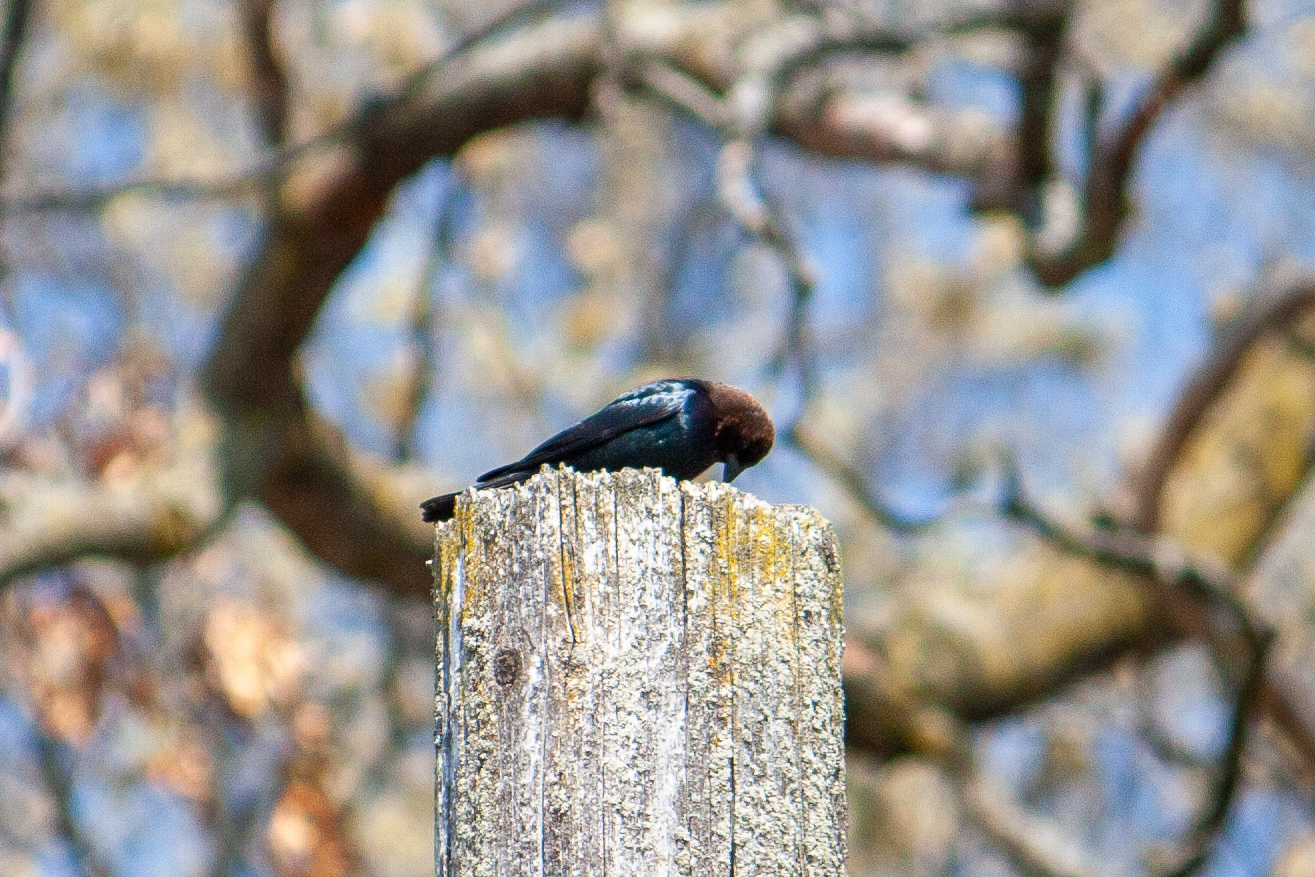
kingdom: Animalia
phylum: Chordata
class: Aves
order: Passeriformes
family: Icteridae
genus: Molothrus
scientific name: Molothrus ater
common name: Brown-headed cowbird
